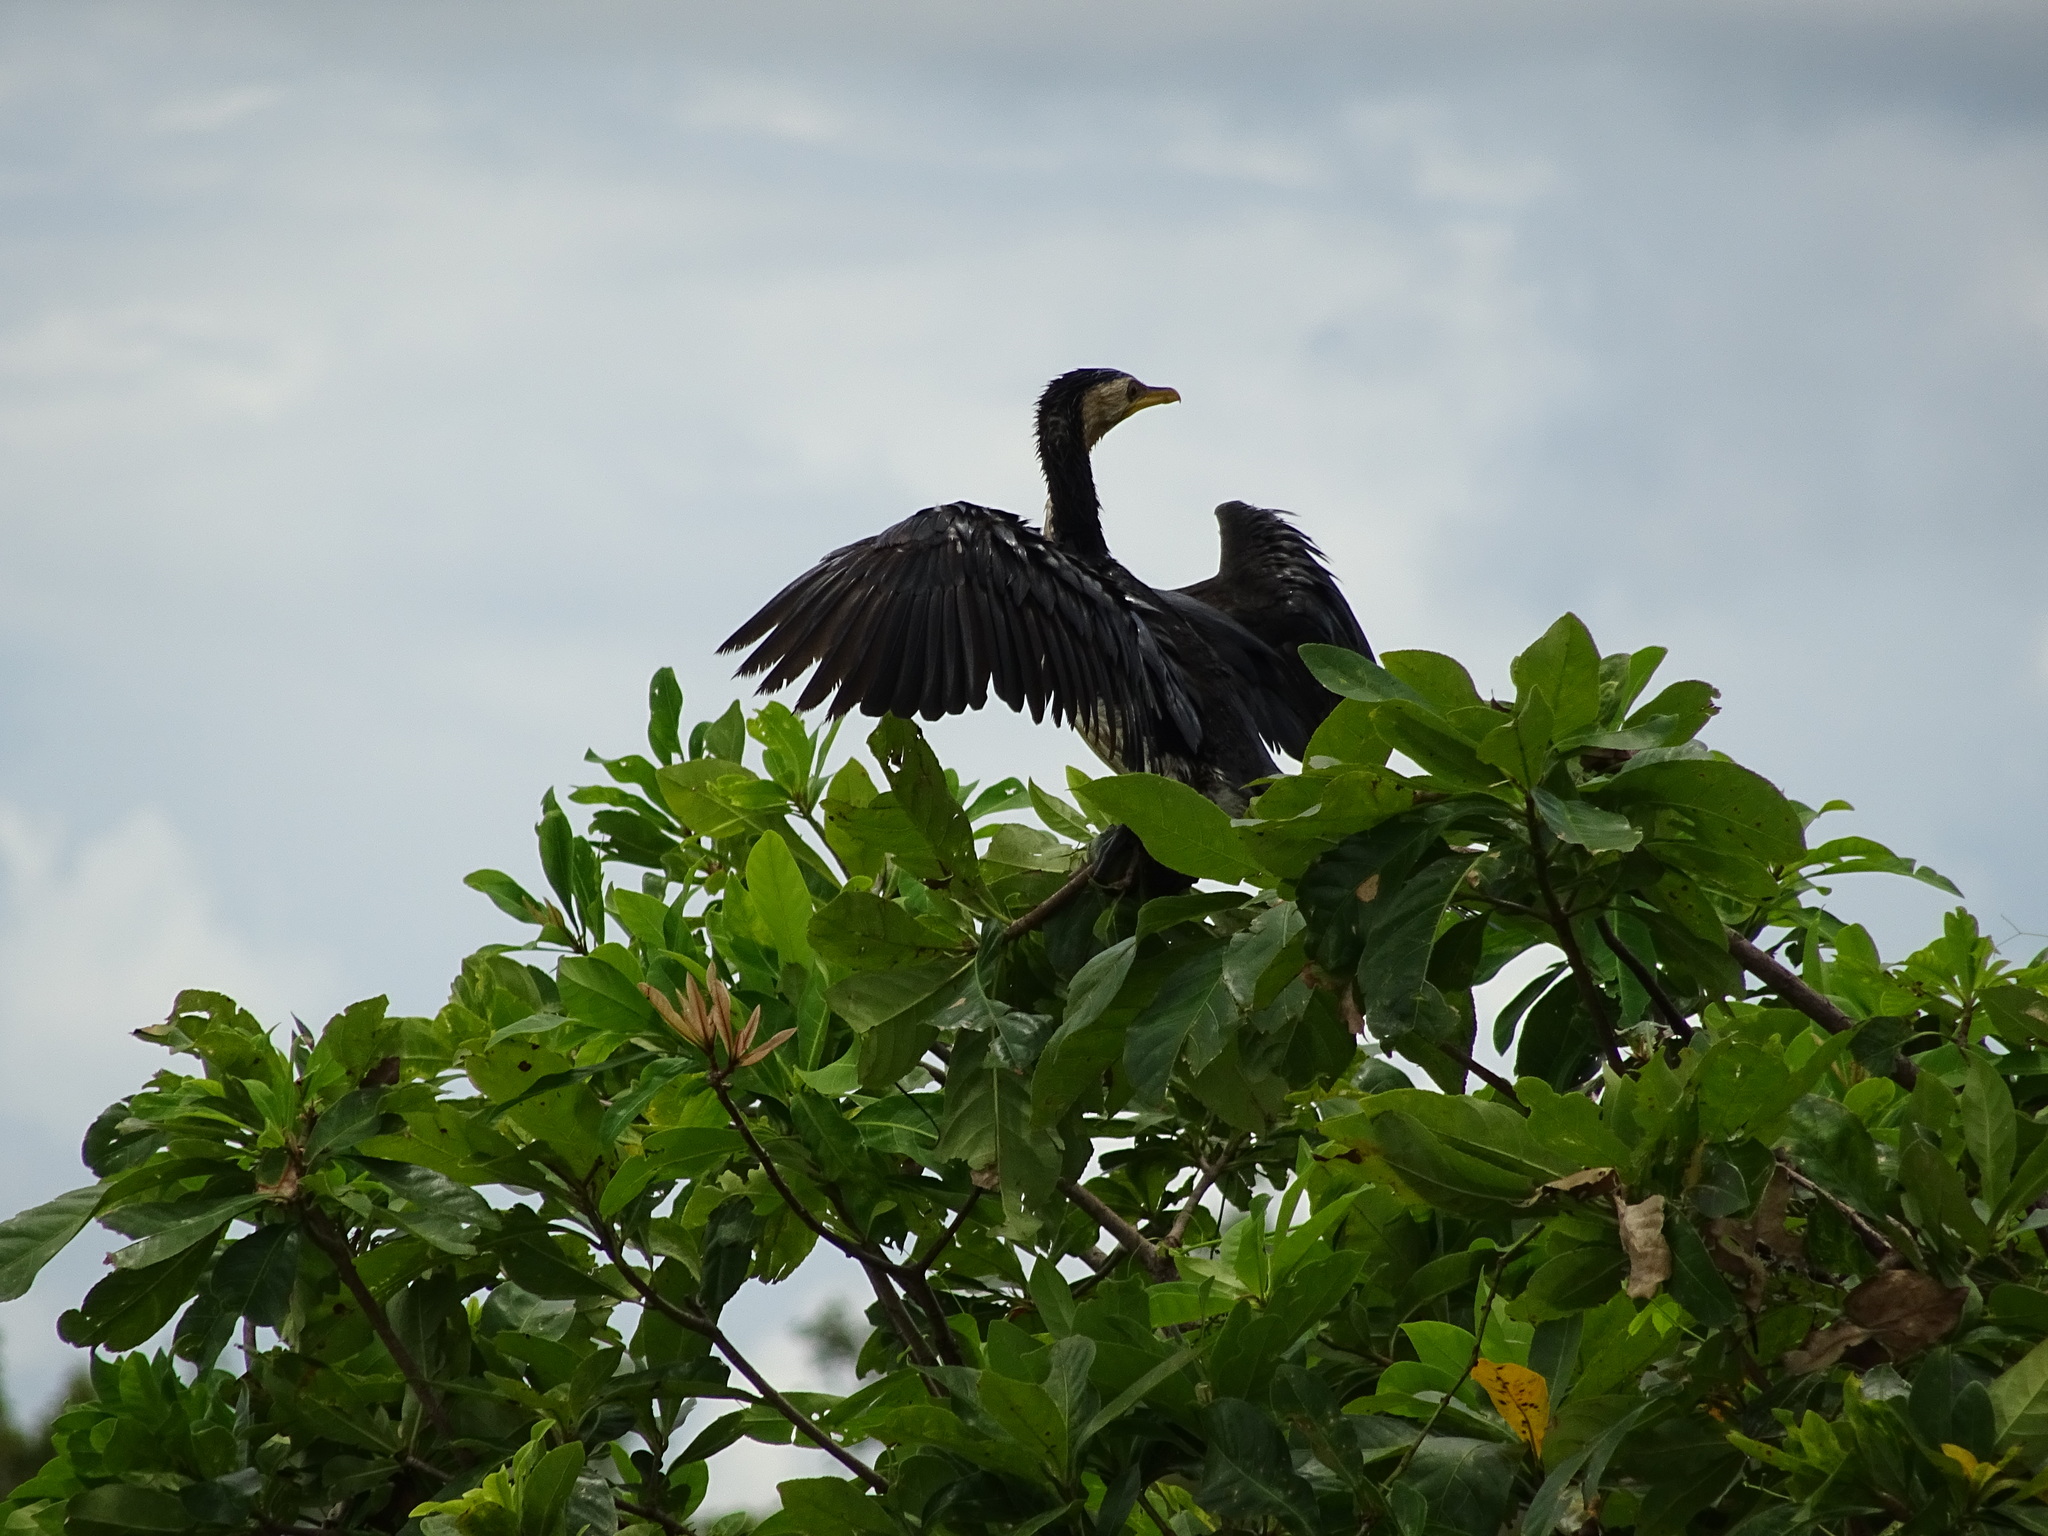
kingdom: Animalia
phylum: Chordata
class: Aves
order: Suliformes
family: Phalacrocoracidae
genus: Microcarbo
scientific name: Microcarbo melanoleucos
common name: Little pied cormorant
